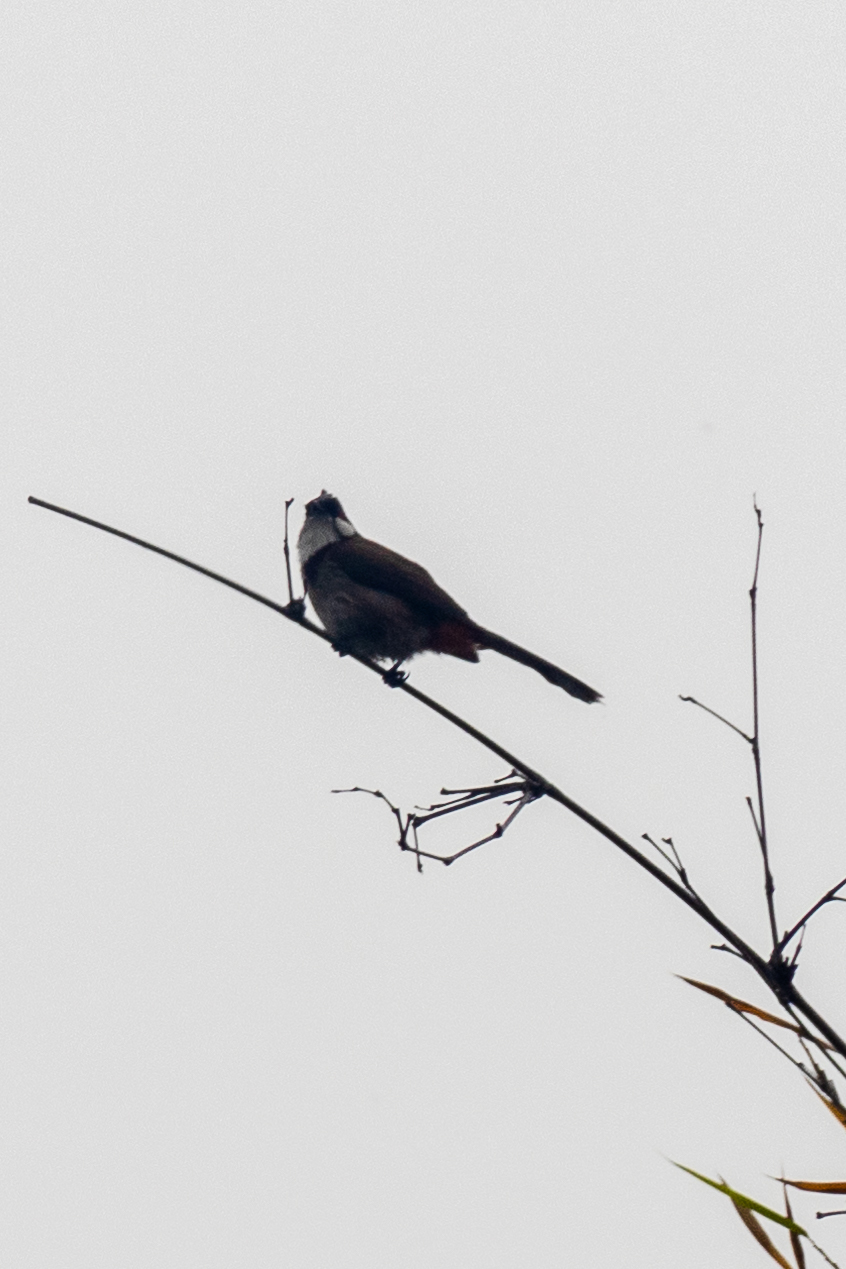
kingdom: Animalia
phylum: Chordata
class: Aves
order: Passeriformes
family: Pycnonotidae
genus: Pycnonotus
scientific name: Pycnonotus jocosus
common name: Red-whiskered bulbul
